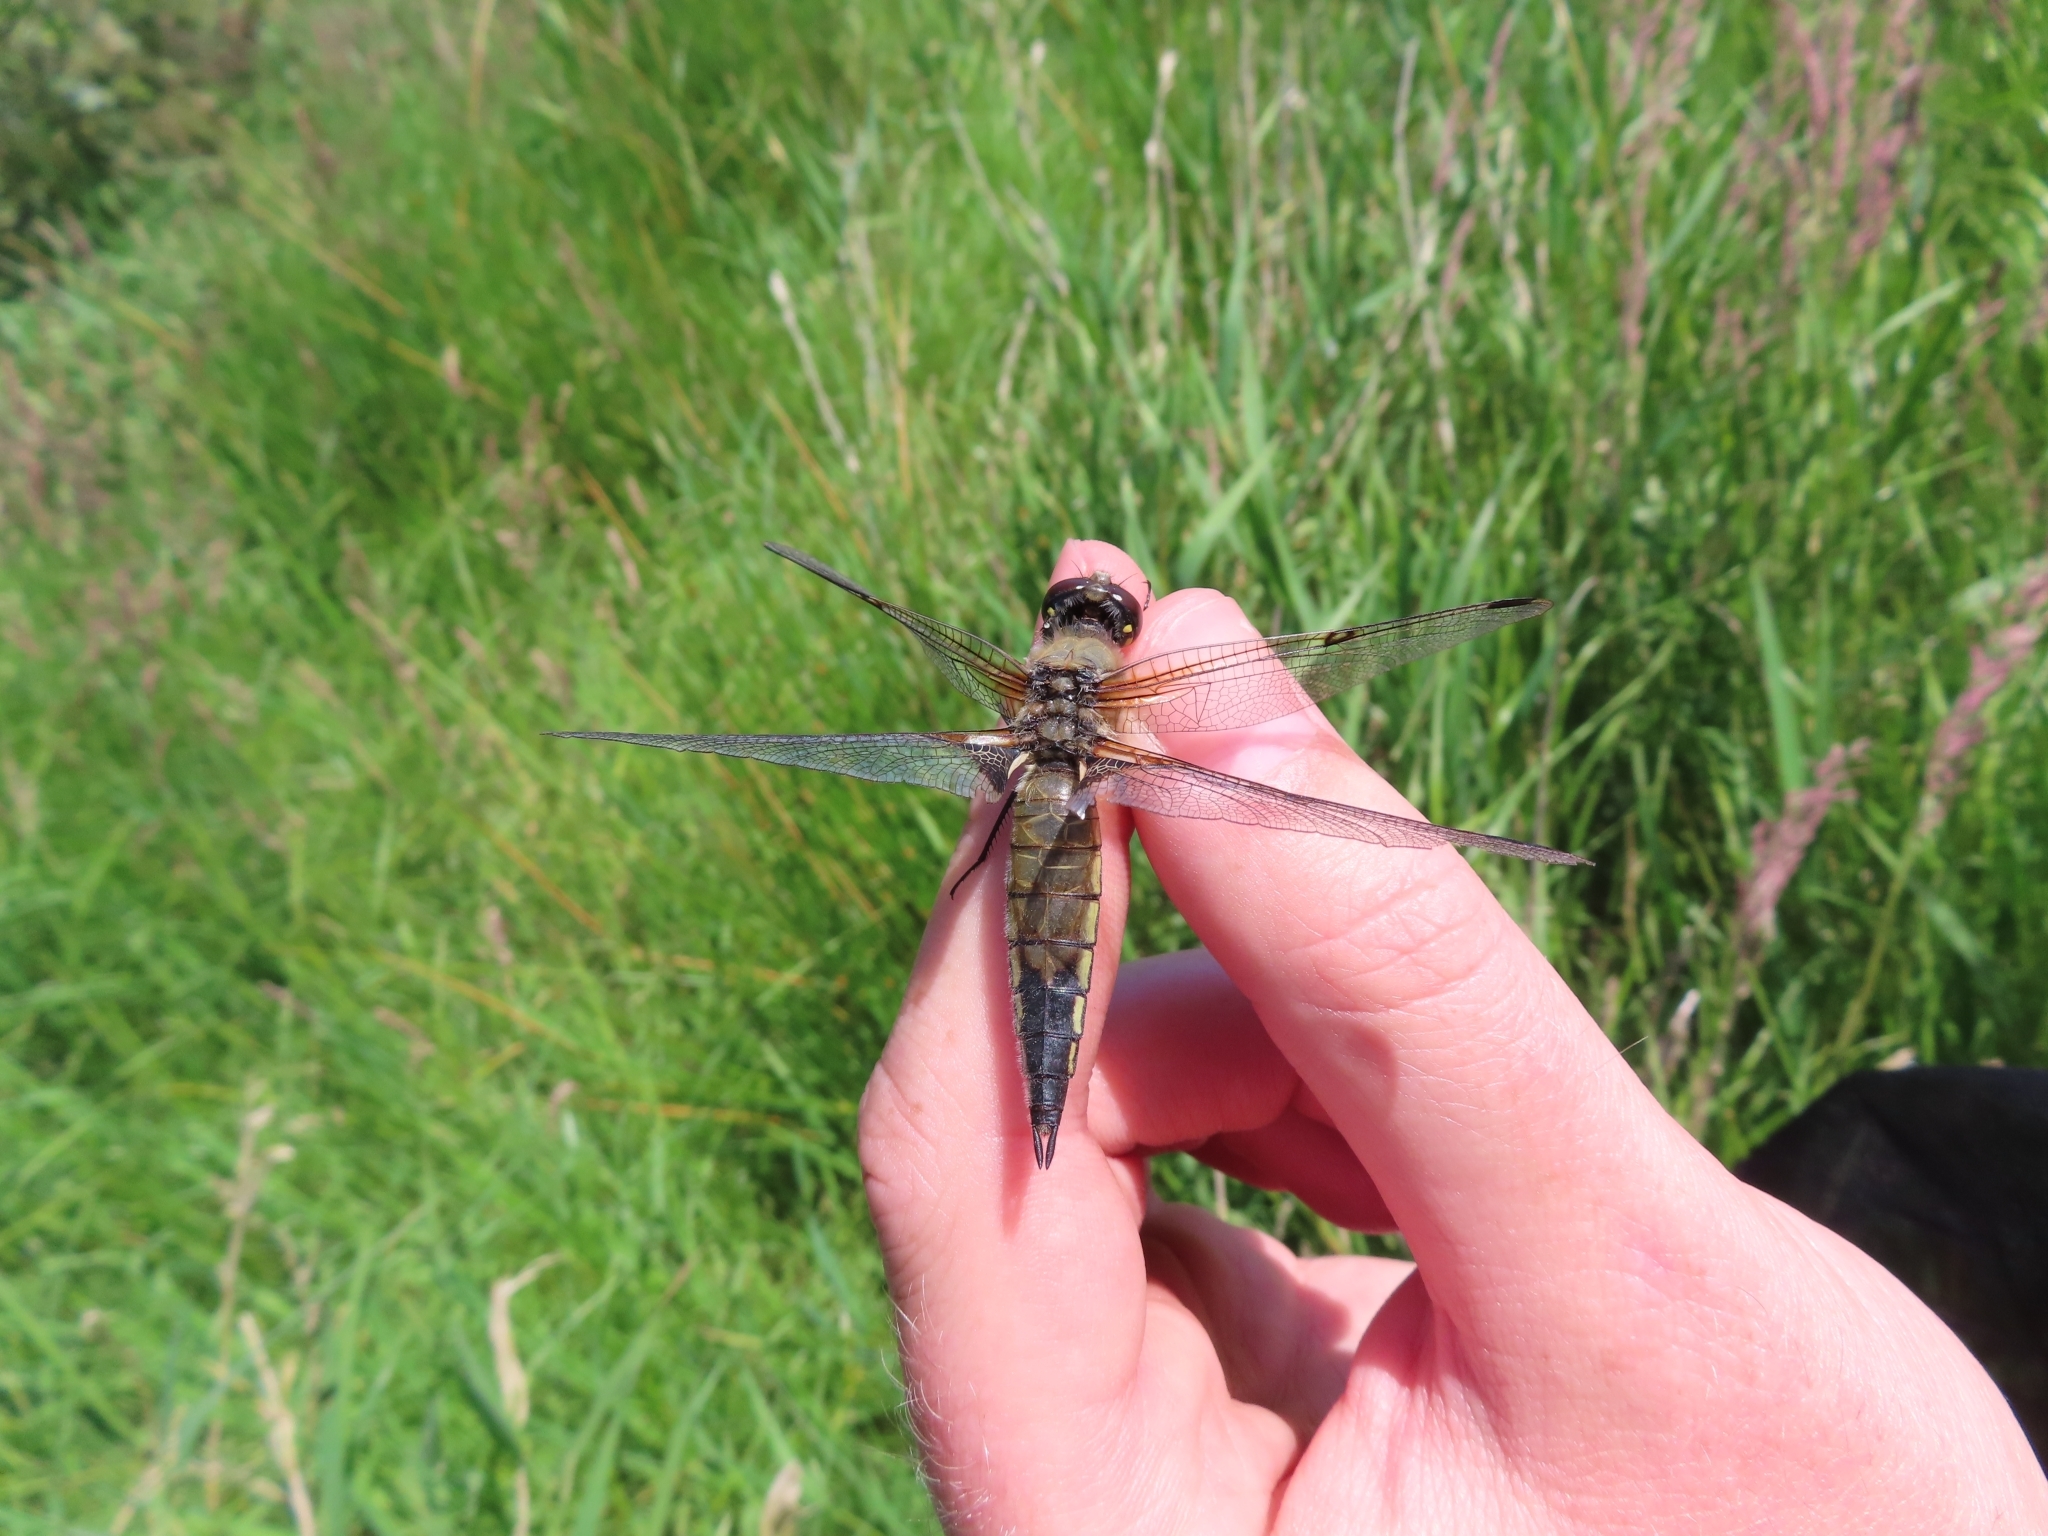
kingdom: Animalia
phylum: Arthropoda
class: Insecta
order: Odonata
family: Libellulidae
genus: Libellula
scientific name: Libellula quadrimaculata
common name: Four-spotted chaser
